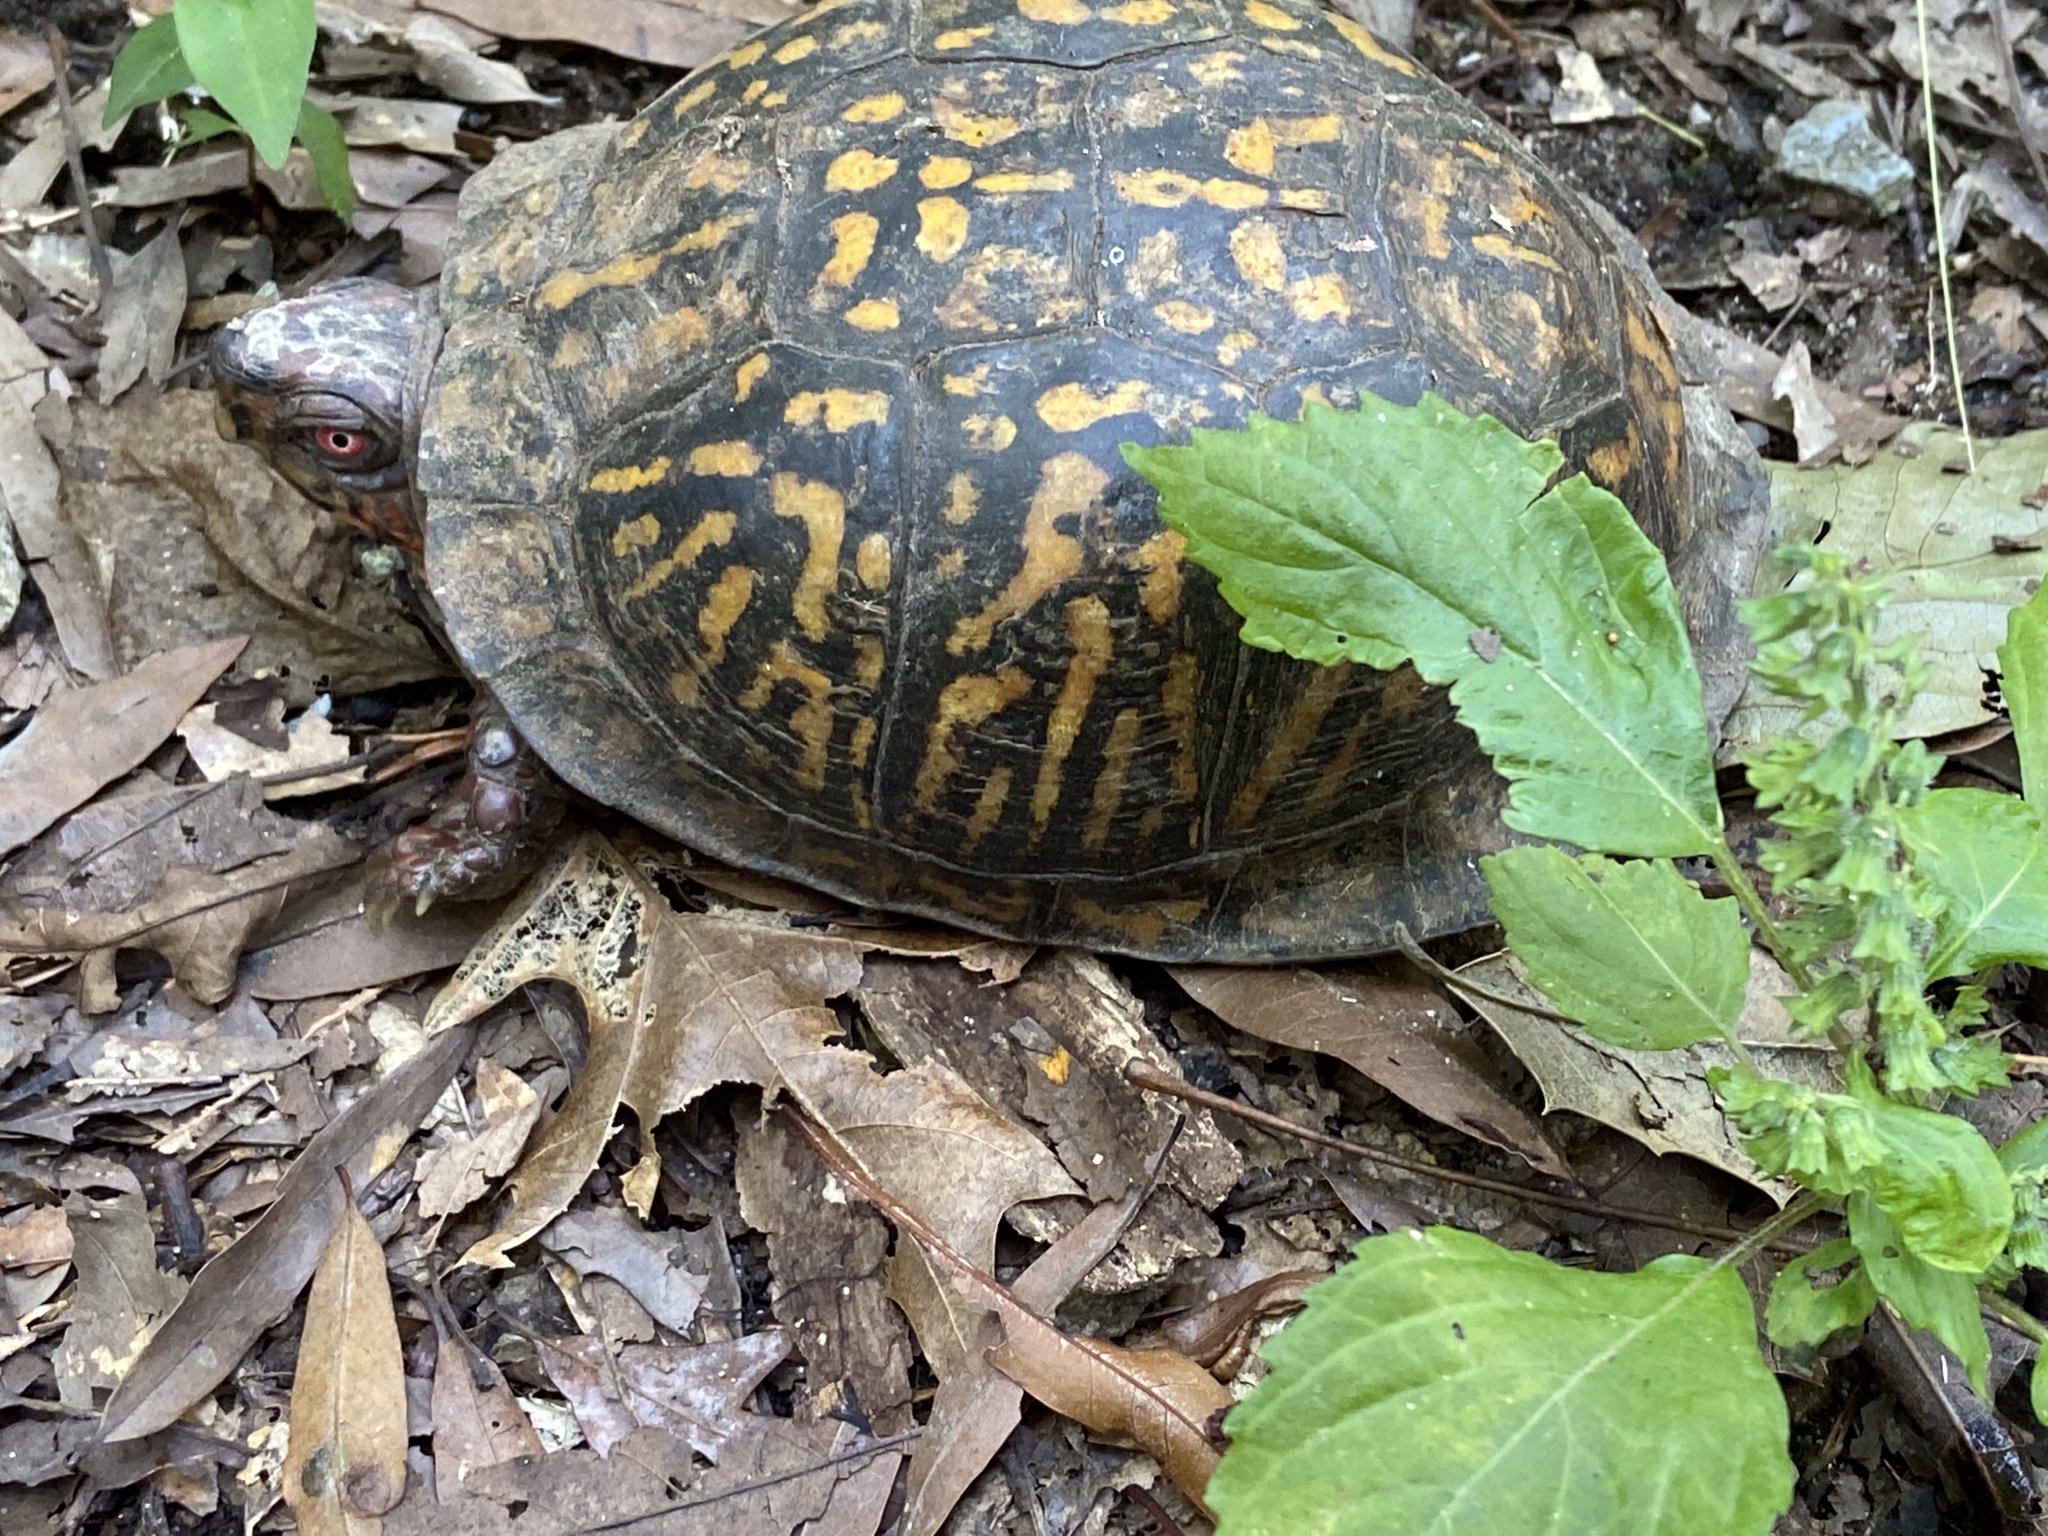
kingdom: Animalia
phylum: Chordata
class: Testudines
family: Emydidae
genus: Terrapene
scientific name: Terrapene carolina
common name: Common box turtle
